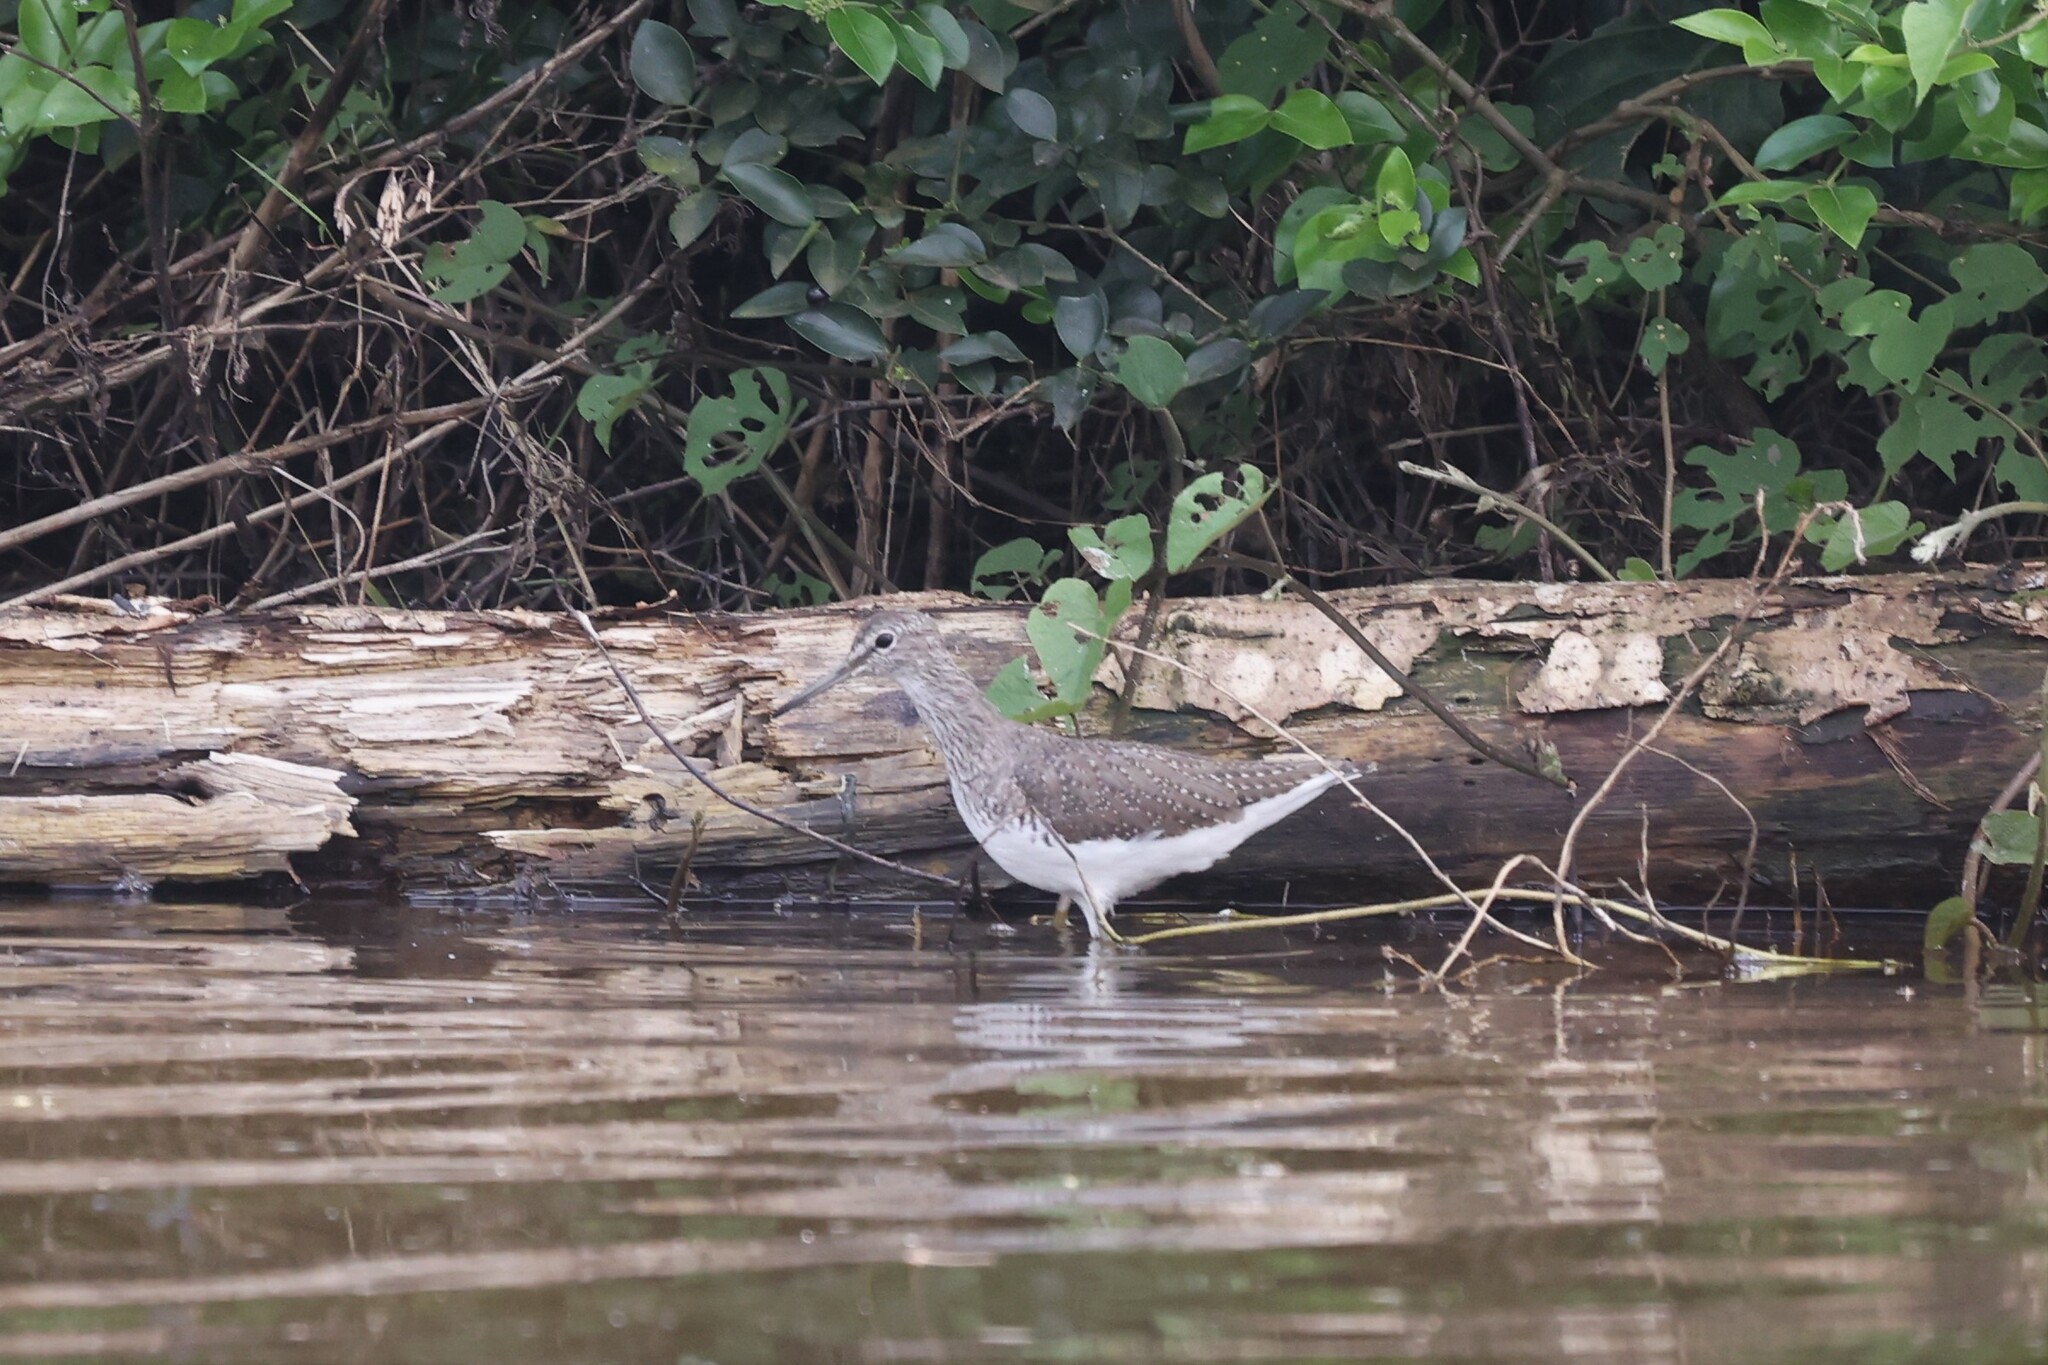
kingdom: Animalia
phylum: Chordata
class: Aves
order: Charadriiformes
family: Scolopacidae
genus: Tringa
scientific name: Tringa ochropus
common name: Green sandpiper
